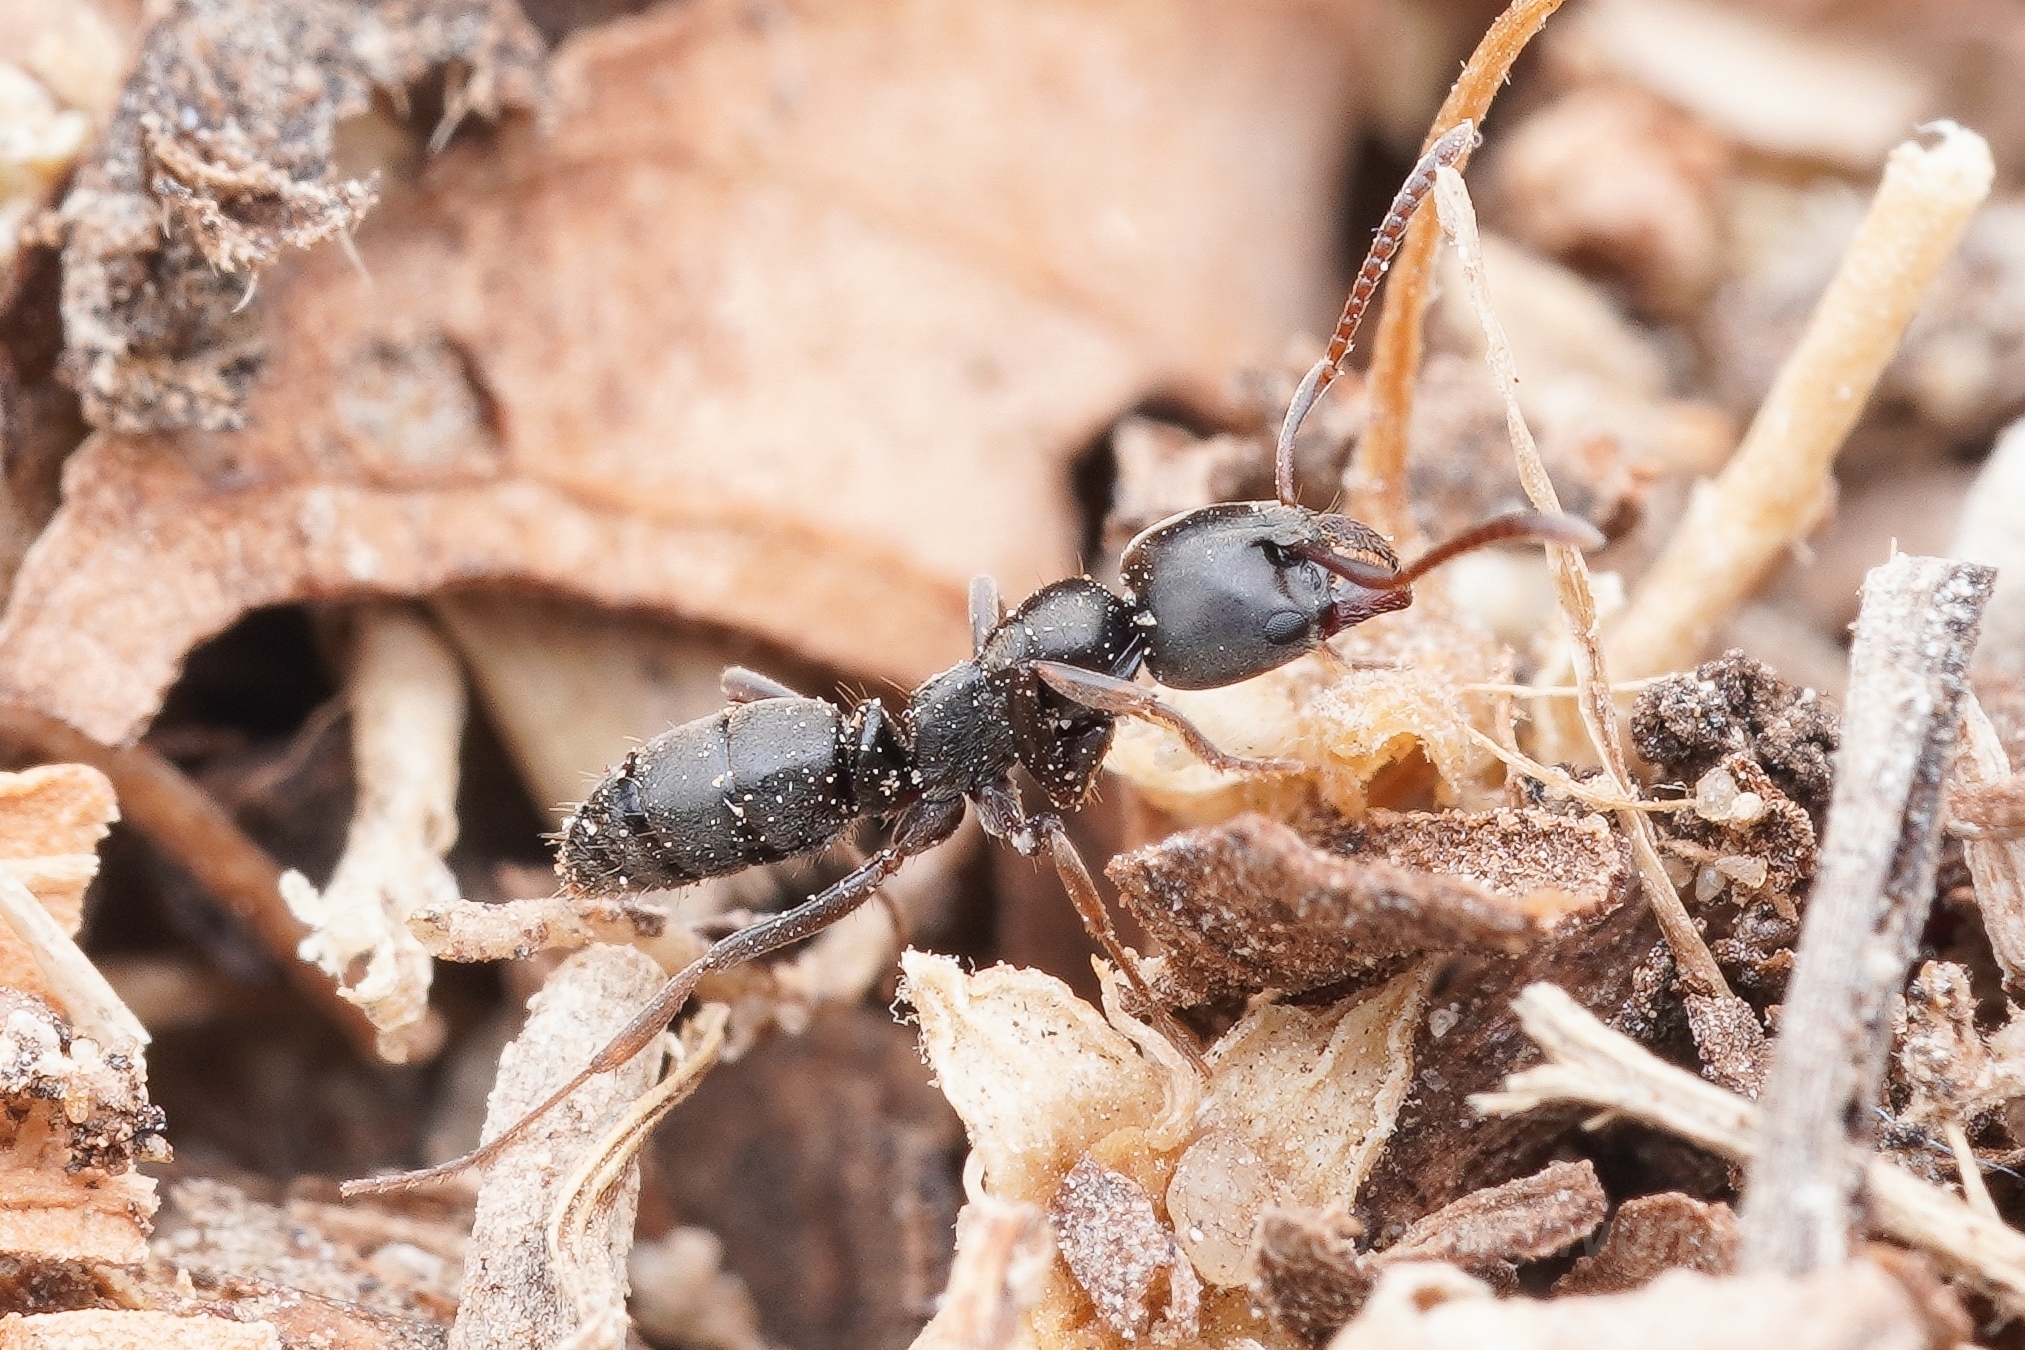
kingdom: Animalia
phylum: Arthropoda
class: Insecta
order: Hymenoptera
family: Formicidae
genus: Pachycondyla
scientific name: Pachycondyla sennaarensis
